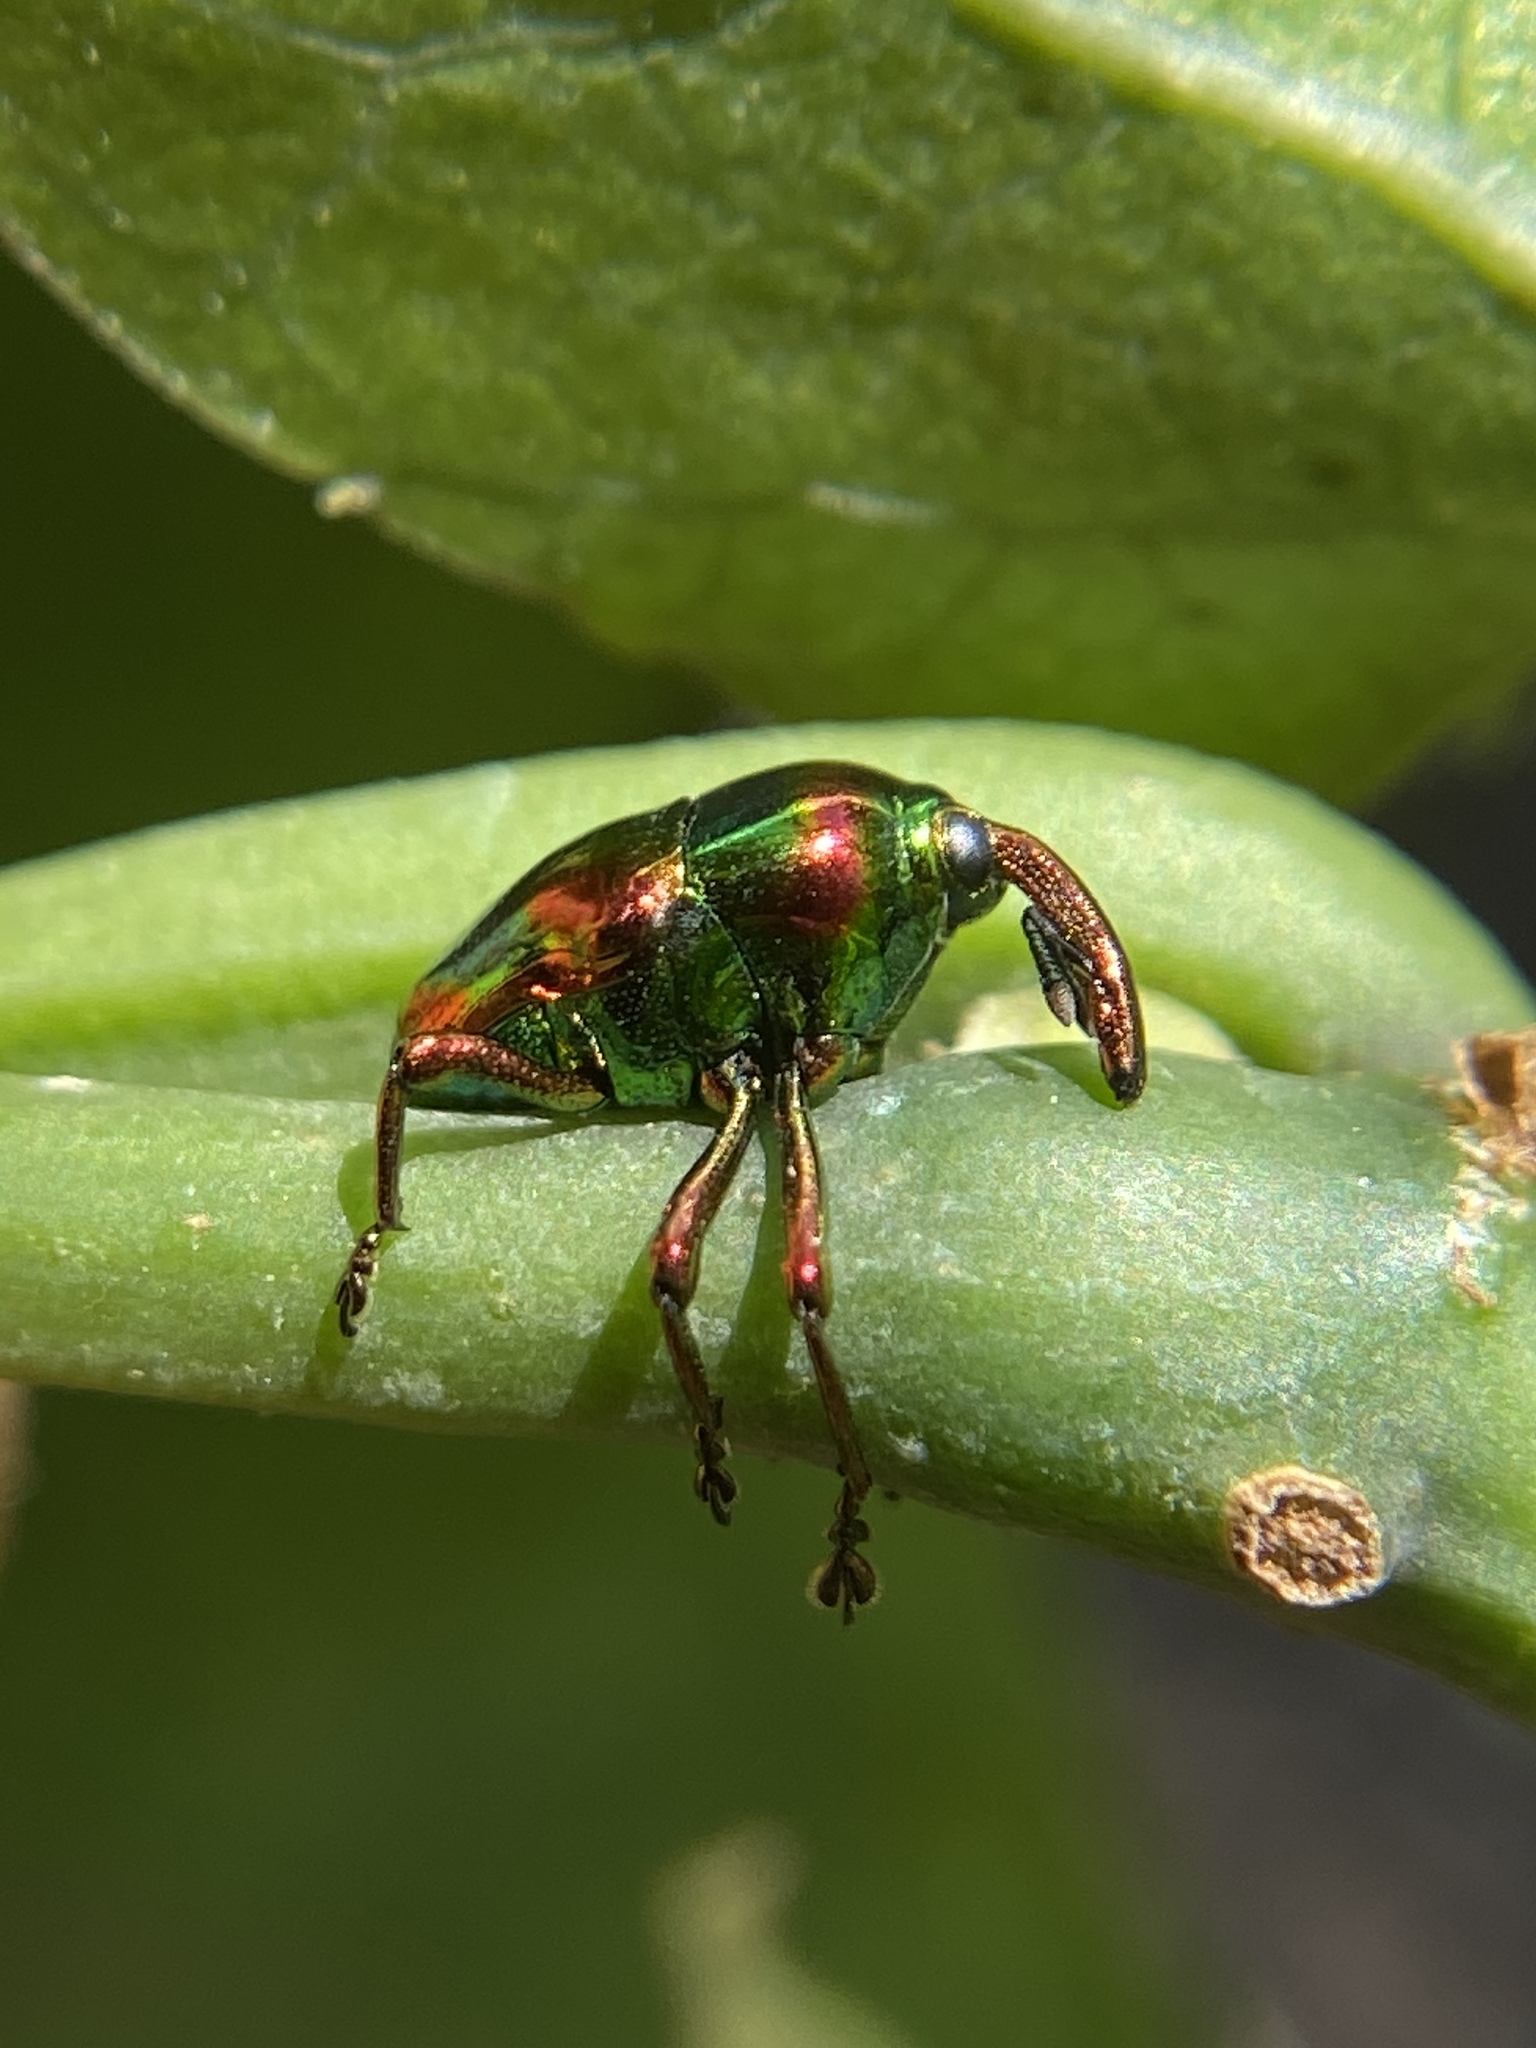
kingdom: Animalia
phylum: Arthropoda
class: Insecta
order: Coleoptera
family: Eurhynchidae
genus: Eurhinus
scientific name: Eurhinus magnificus
